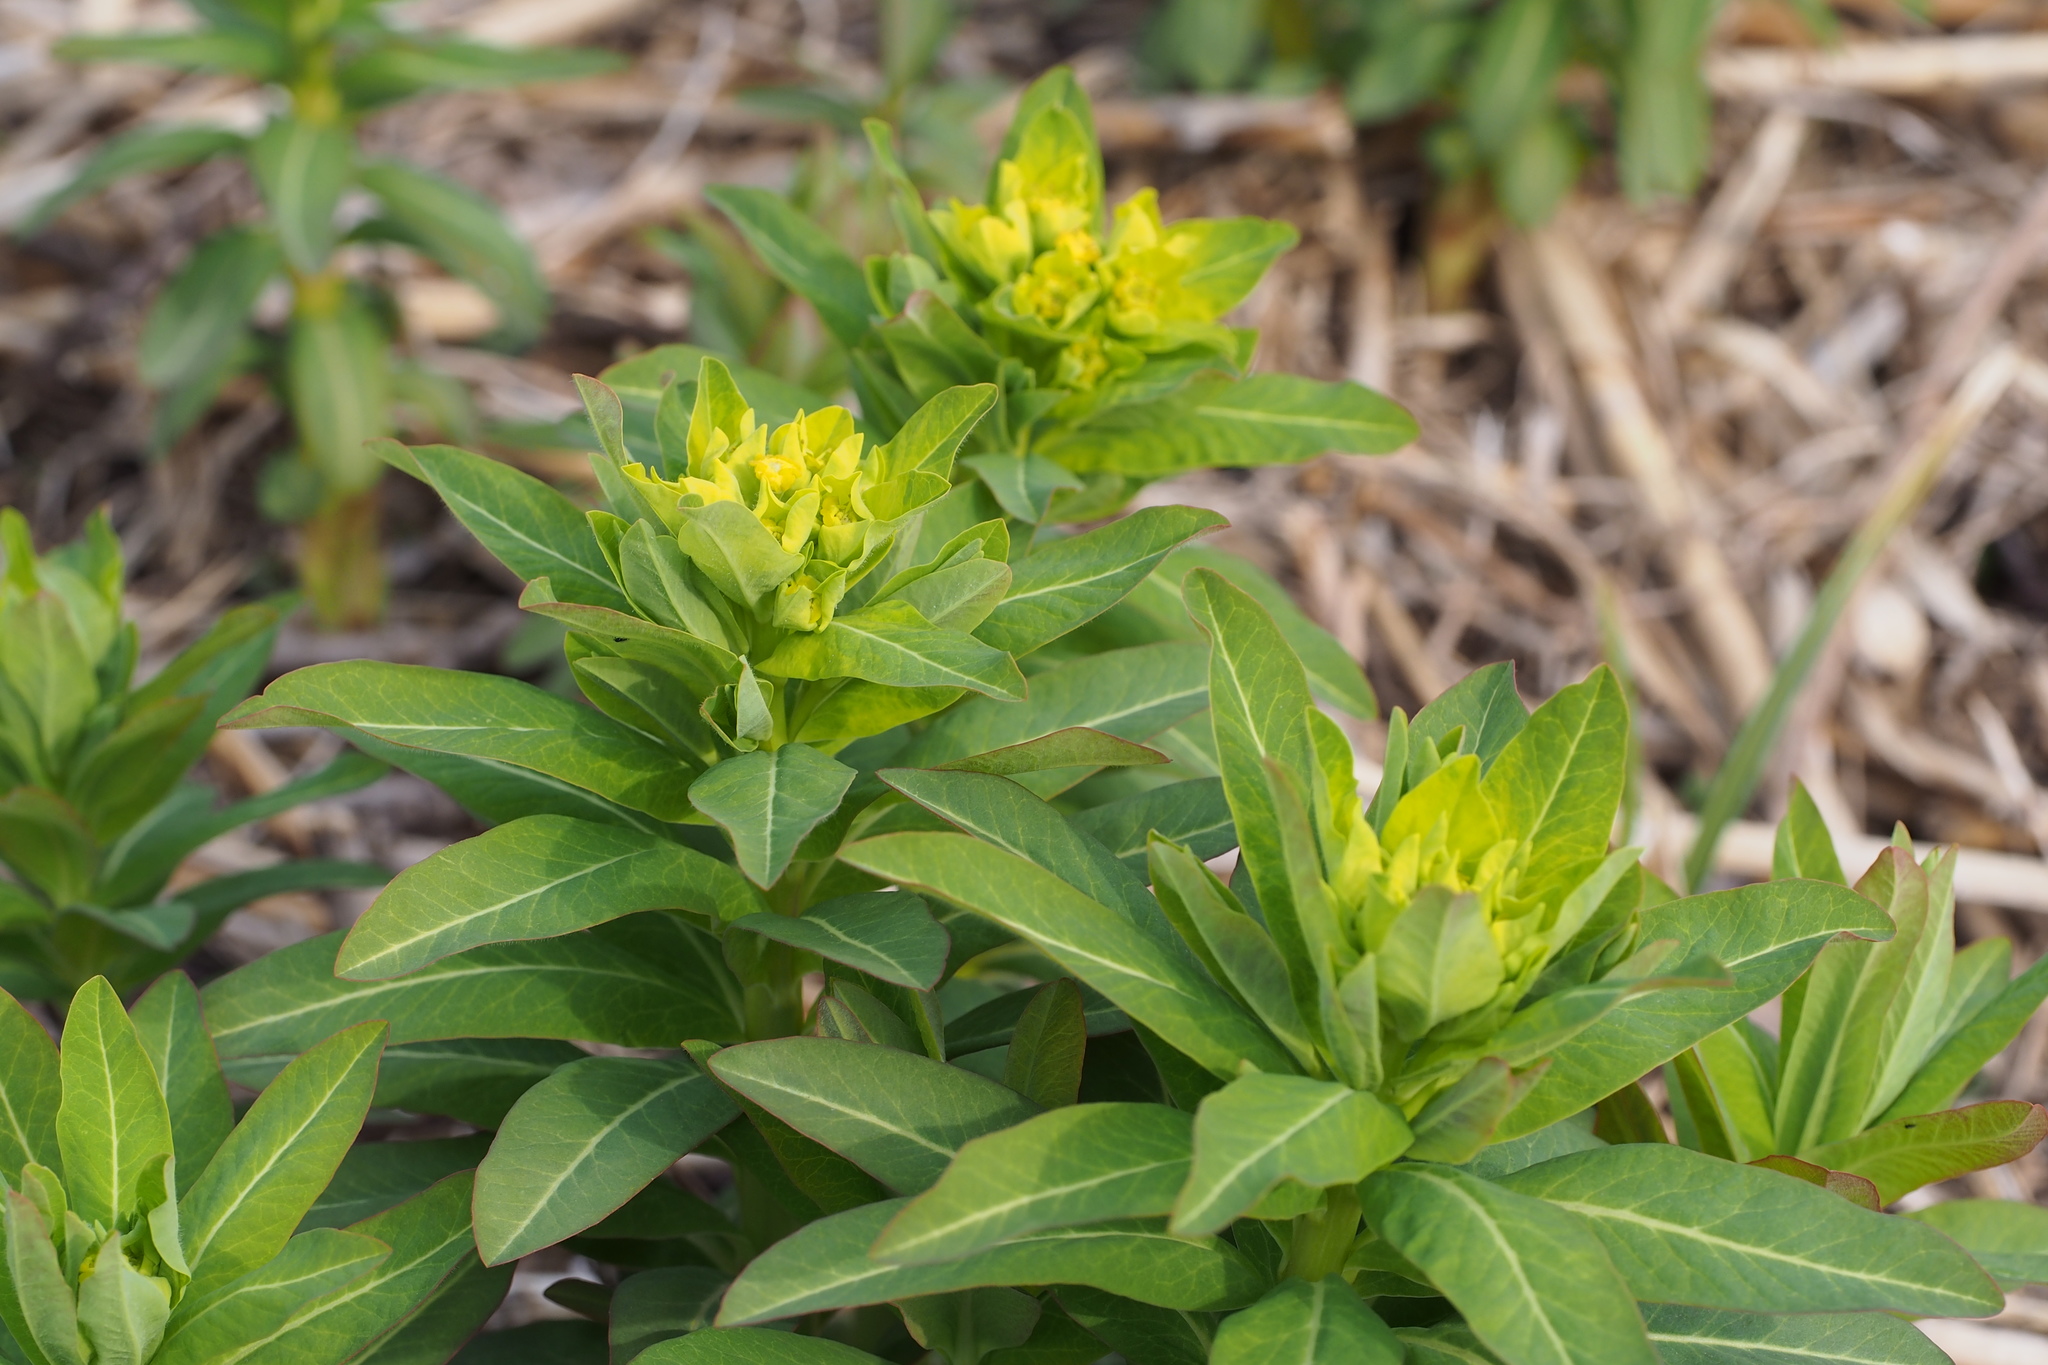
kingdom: Plantae
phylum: Tracheophyta
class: Magnoliopsida
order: Malpighiales
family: Euphorbiaceae
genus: Euphorbia
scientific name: Euphorbia adenochlora
